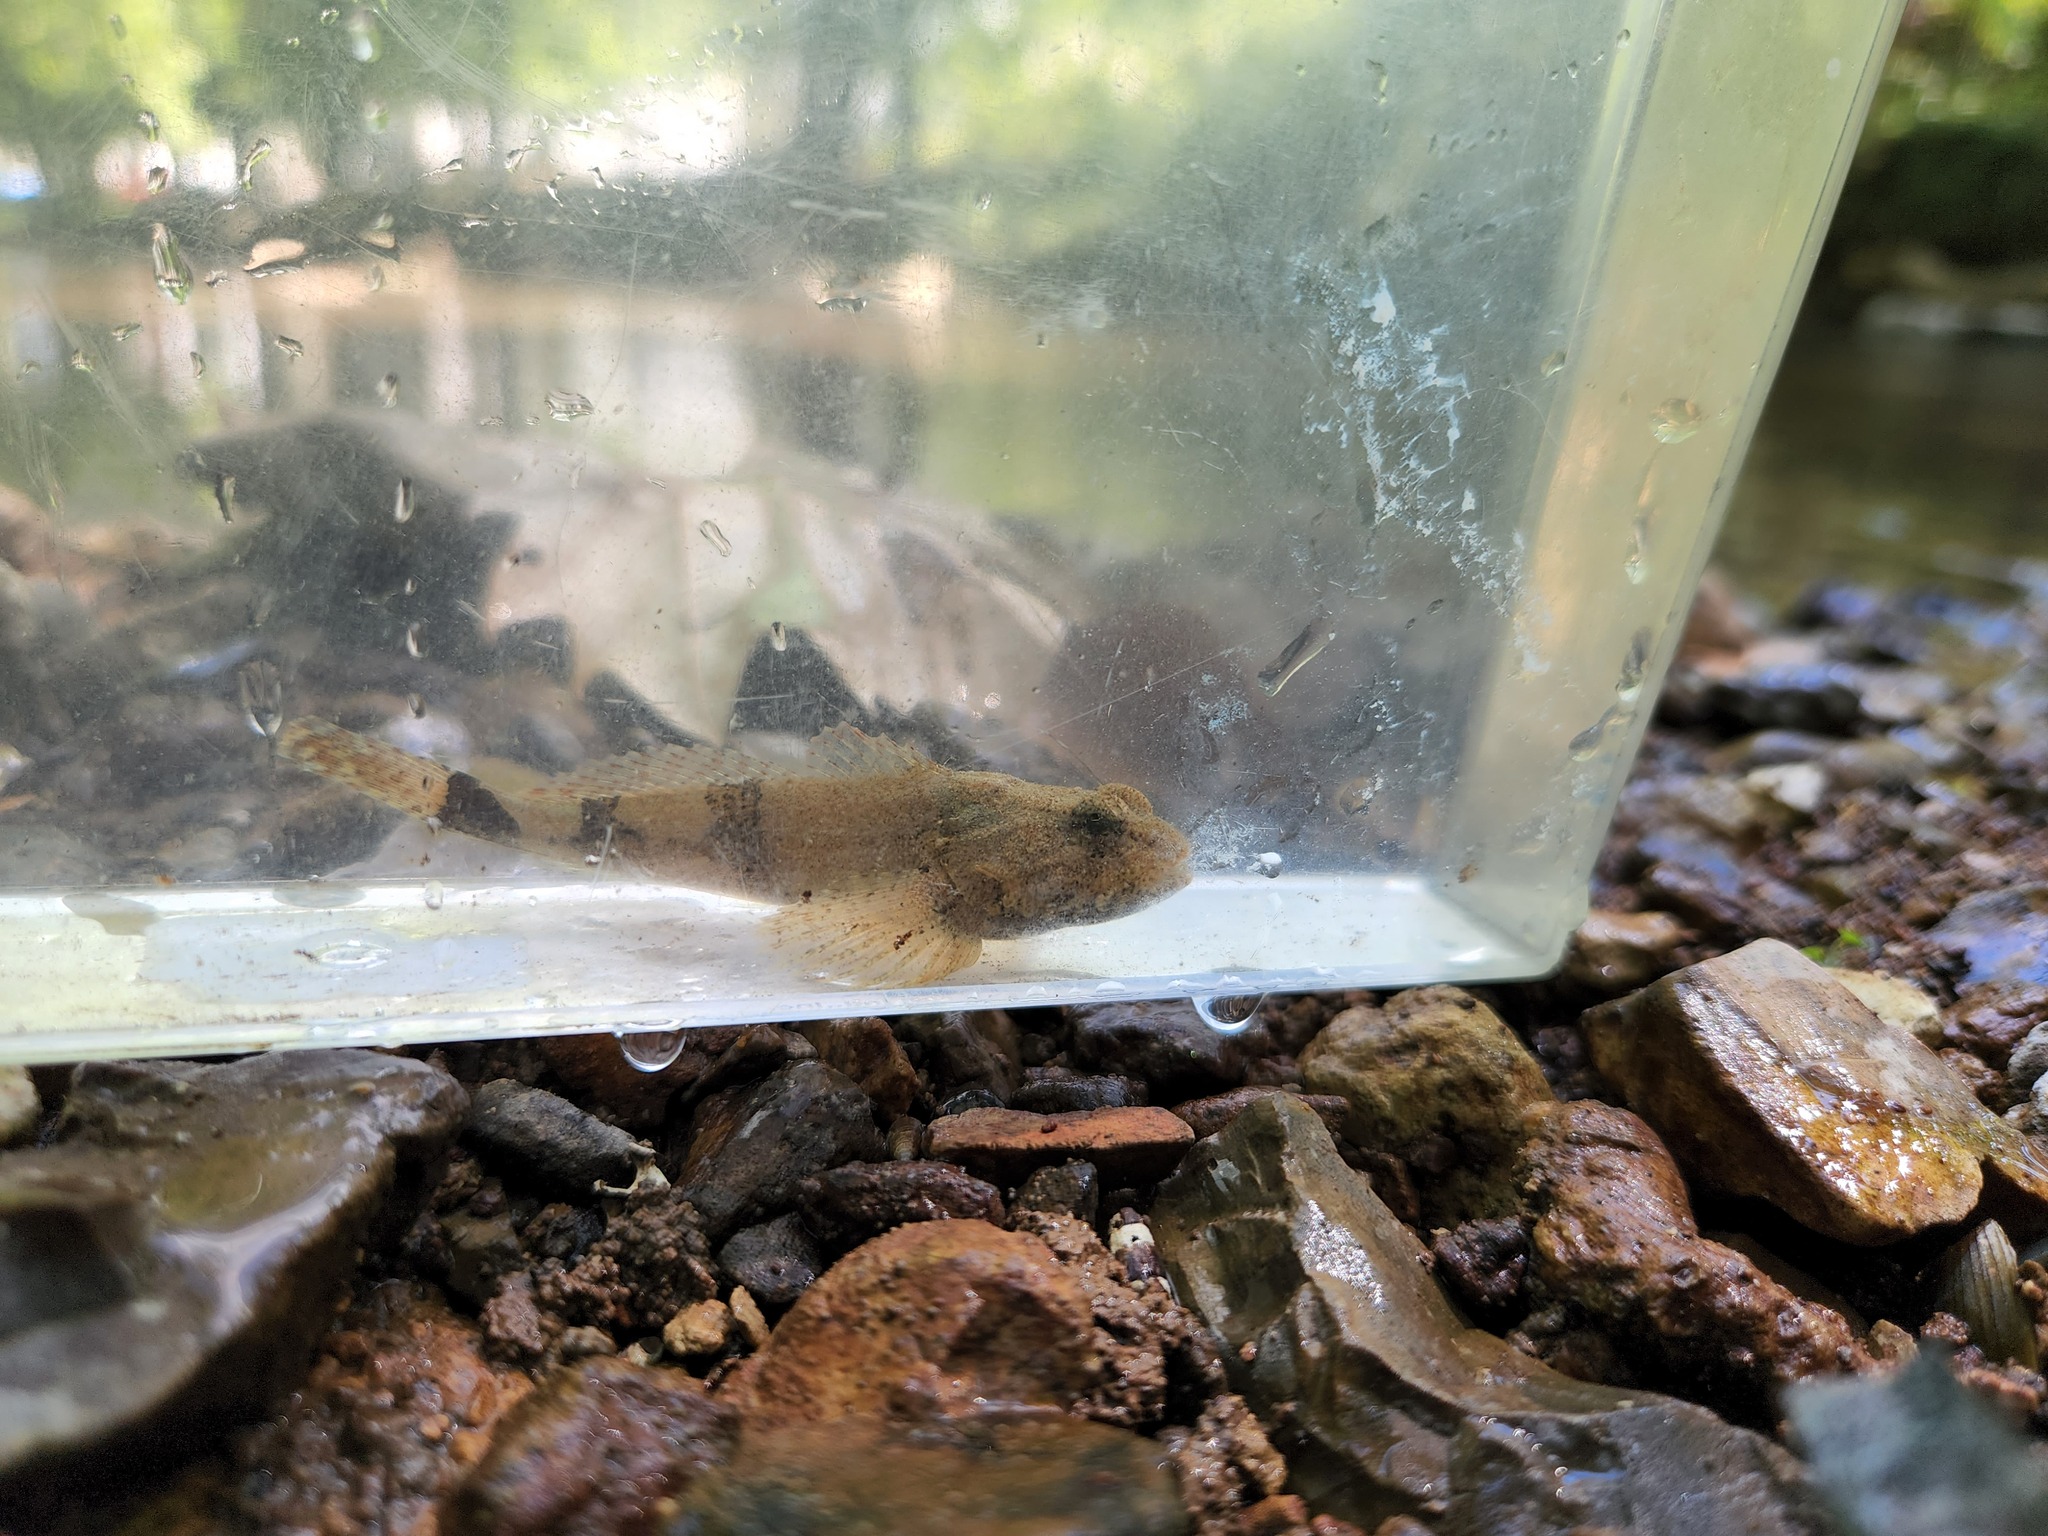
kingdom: Animalia
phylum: Chordata
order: Scorpaeniformes
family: Cottidae
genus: Cottus
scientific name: Cottus carolinae
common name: Banded sculpin
